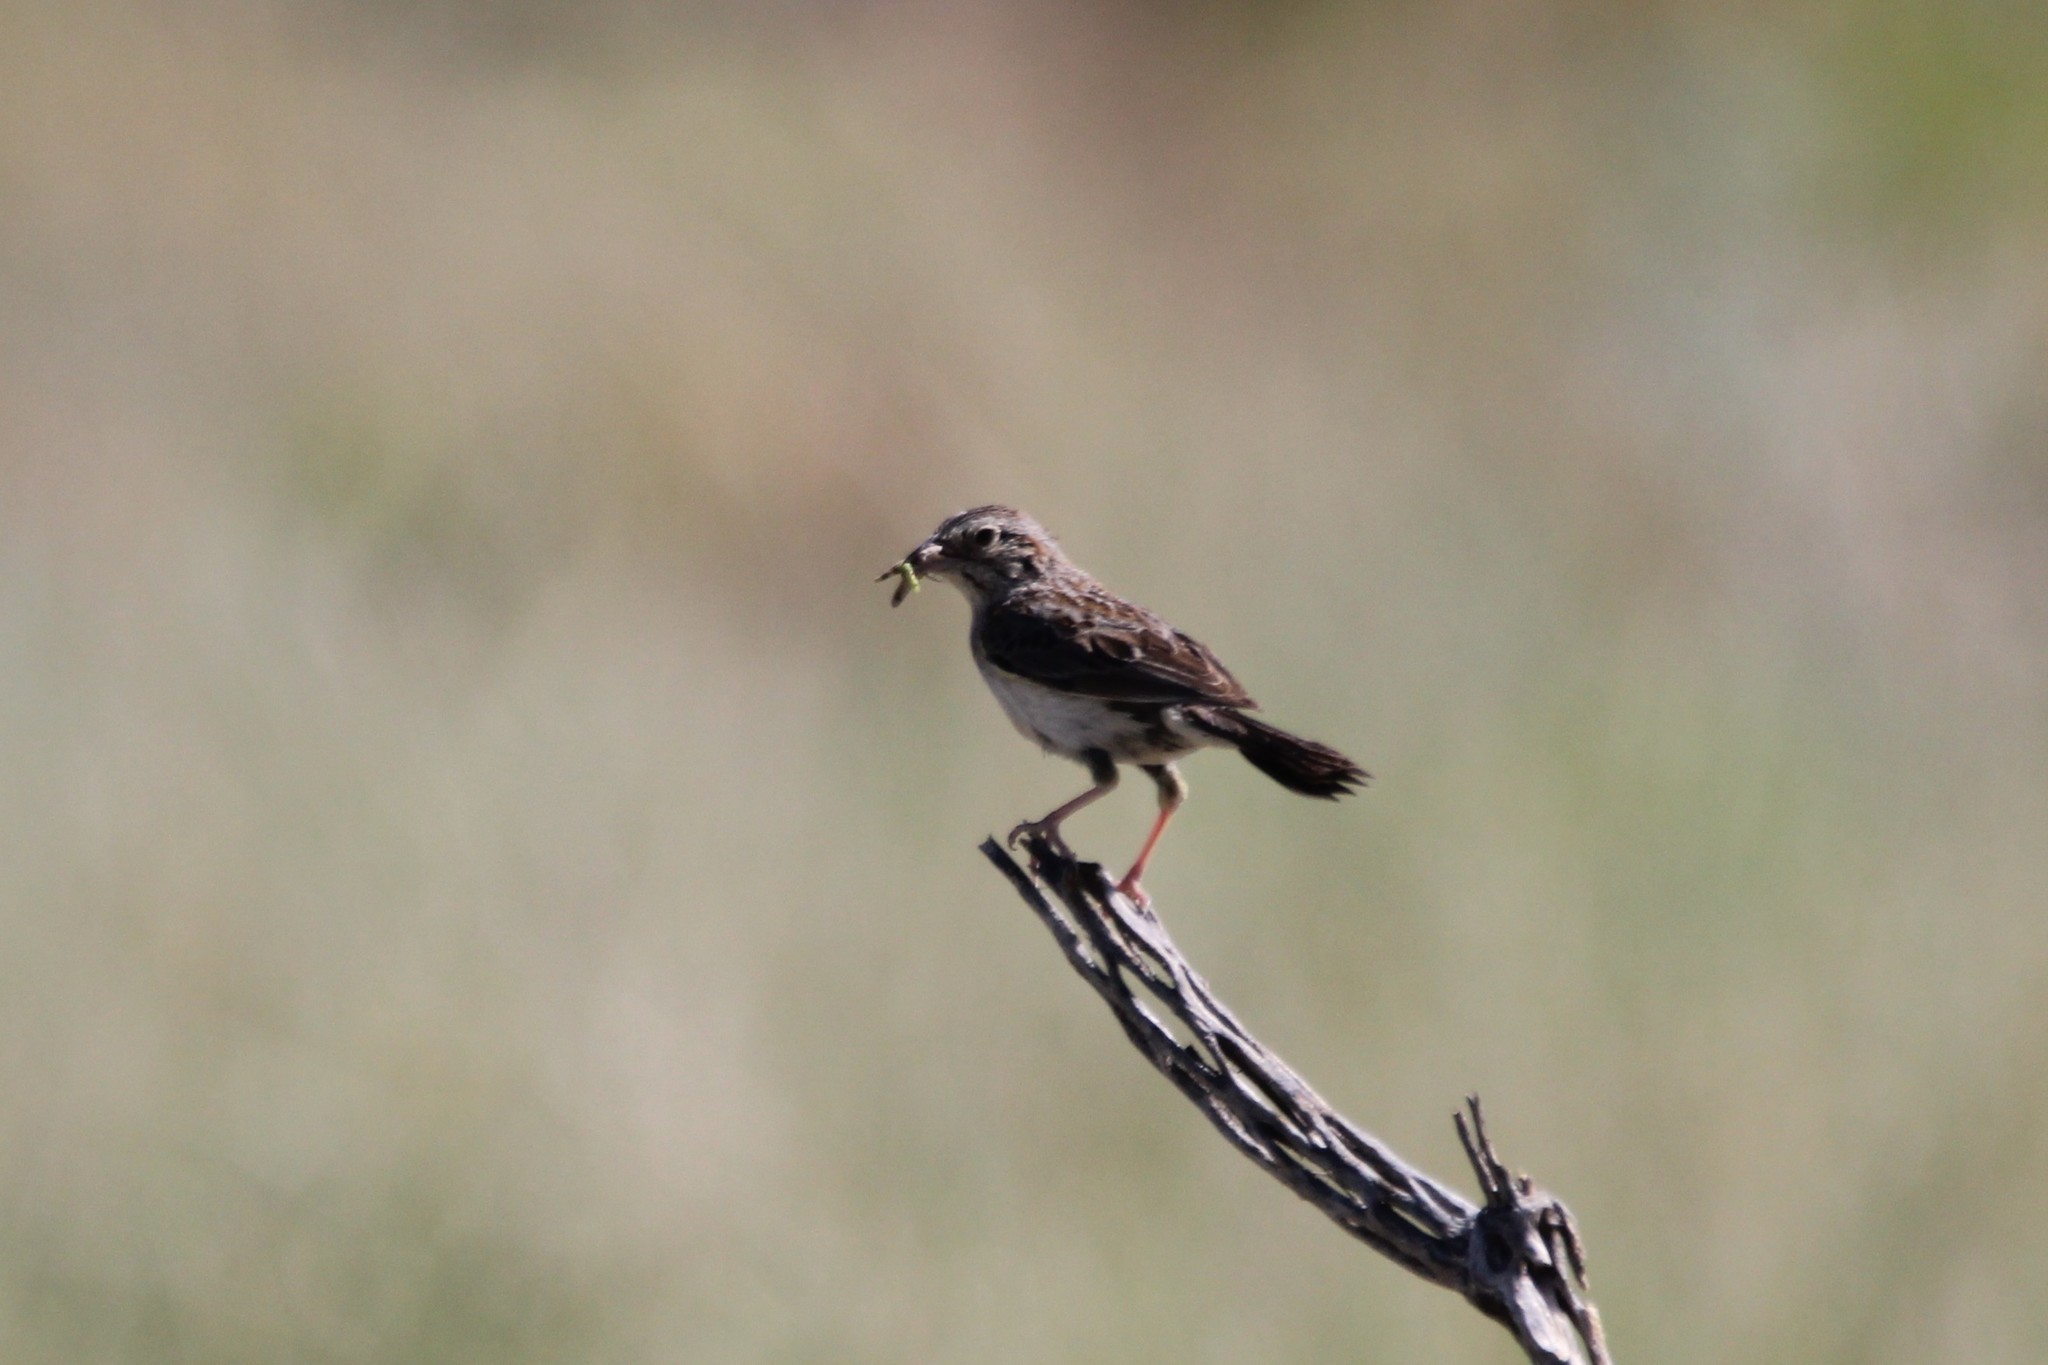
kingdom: Animalia
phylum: Chordata
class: Aves
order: Passeriformes
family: Passerellidae
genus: Peucaea
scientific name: Peucaea cassinii
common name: Cassin's sparrow
